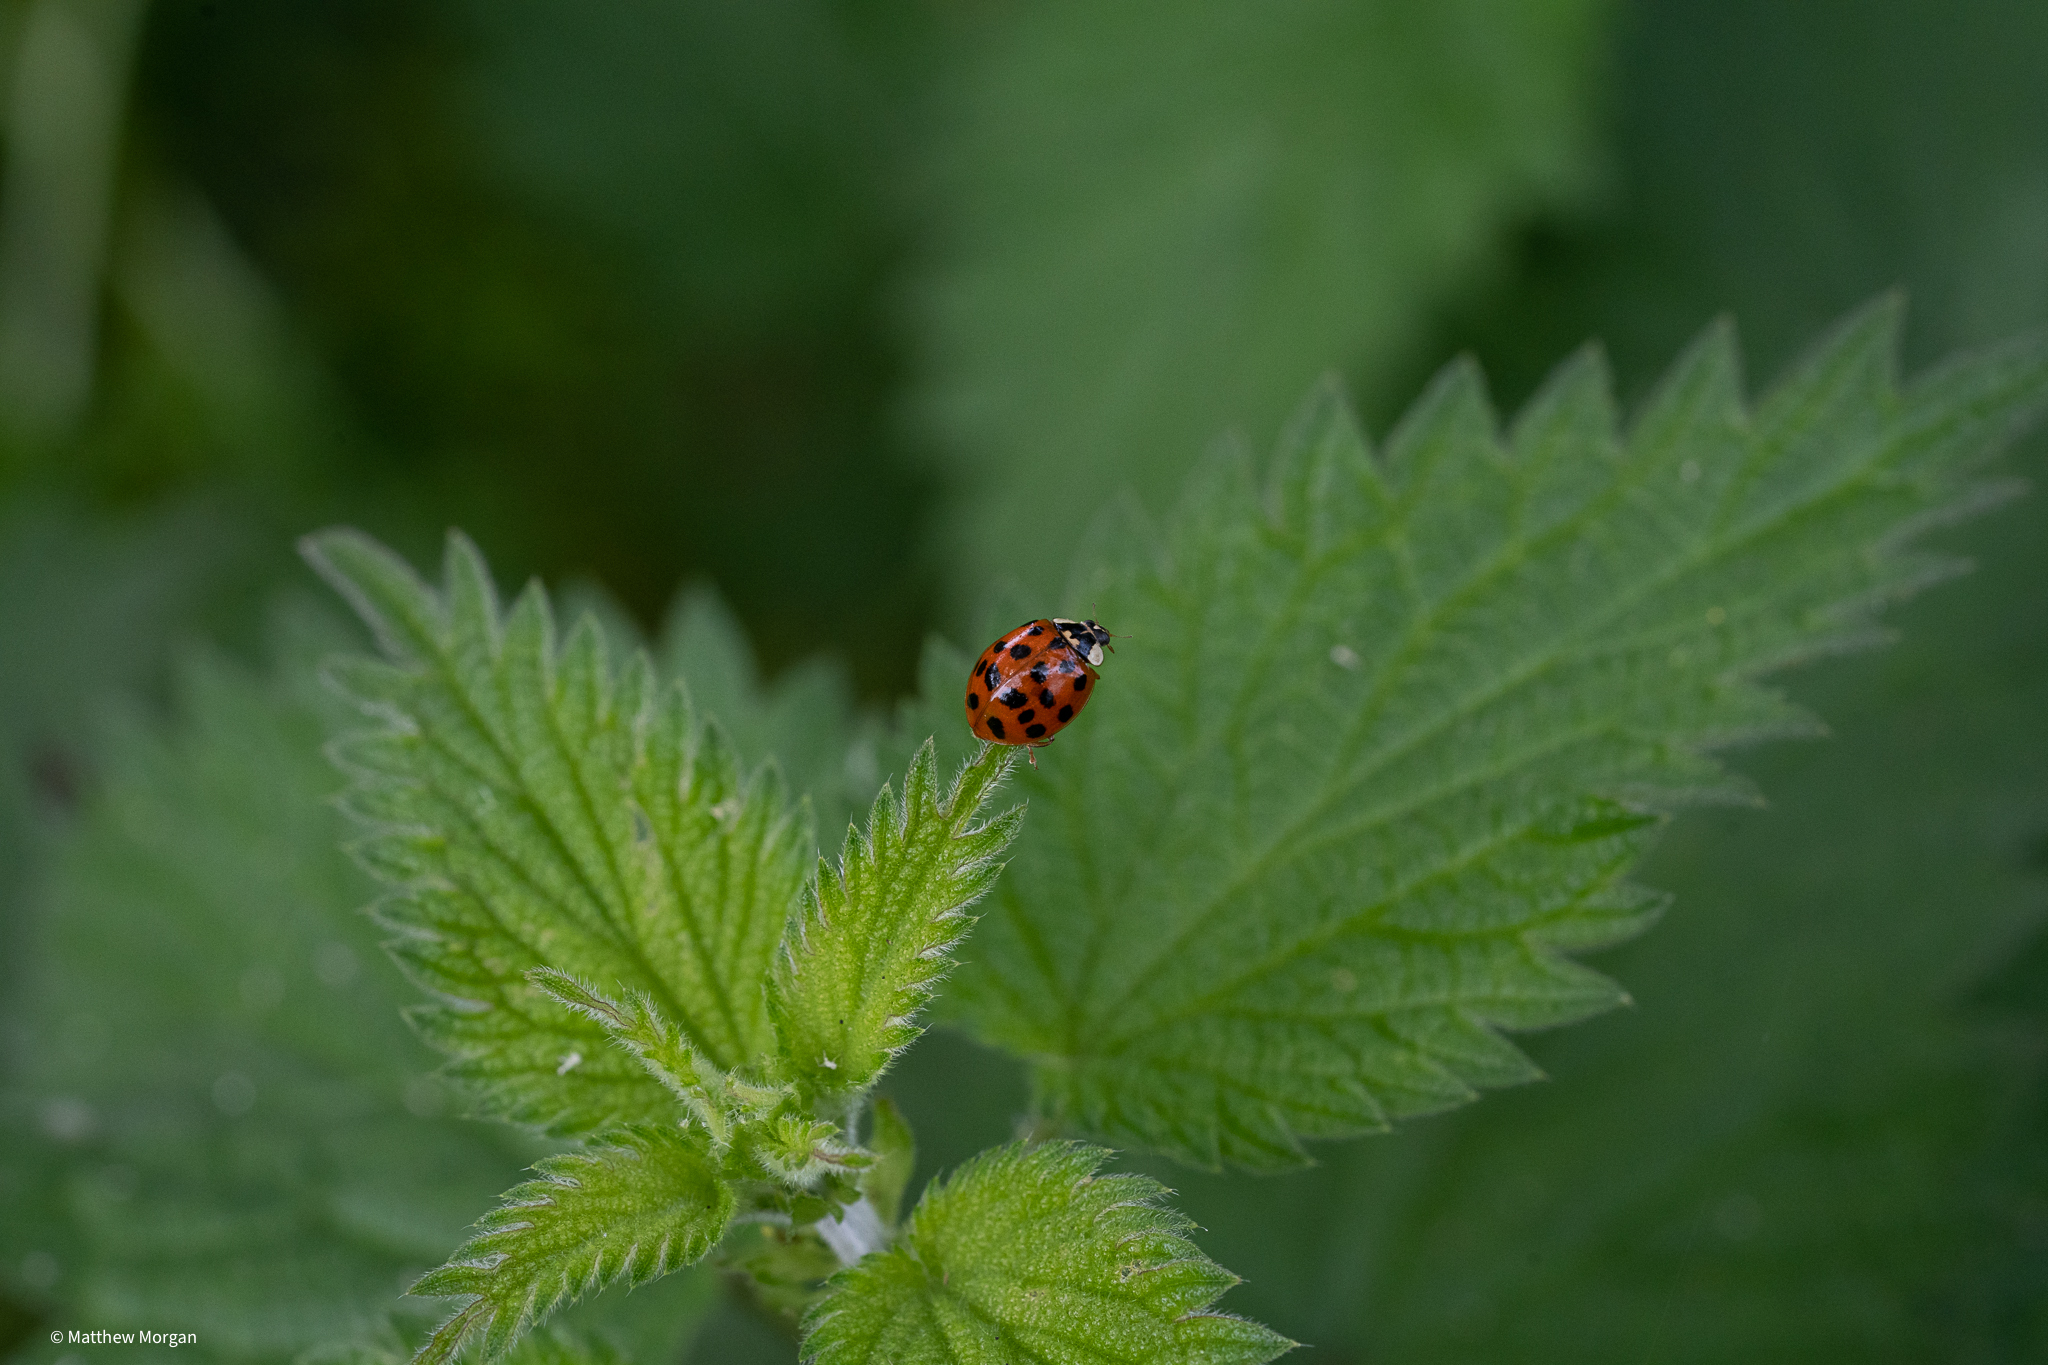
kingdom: Animalia
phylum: Arthropoda
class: Insecta
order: Coleoptera
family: Coccinellidae
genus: Harmonia
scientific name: Harmonia axyridis
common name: Harlequin ladybird
